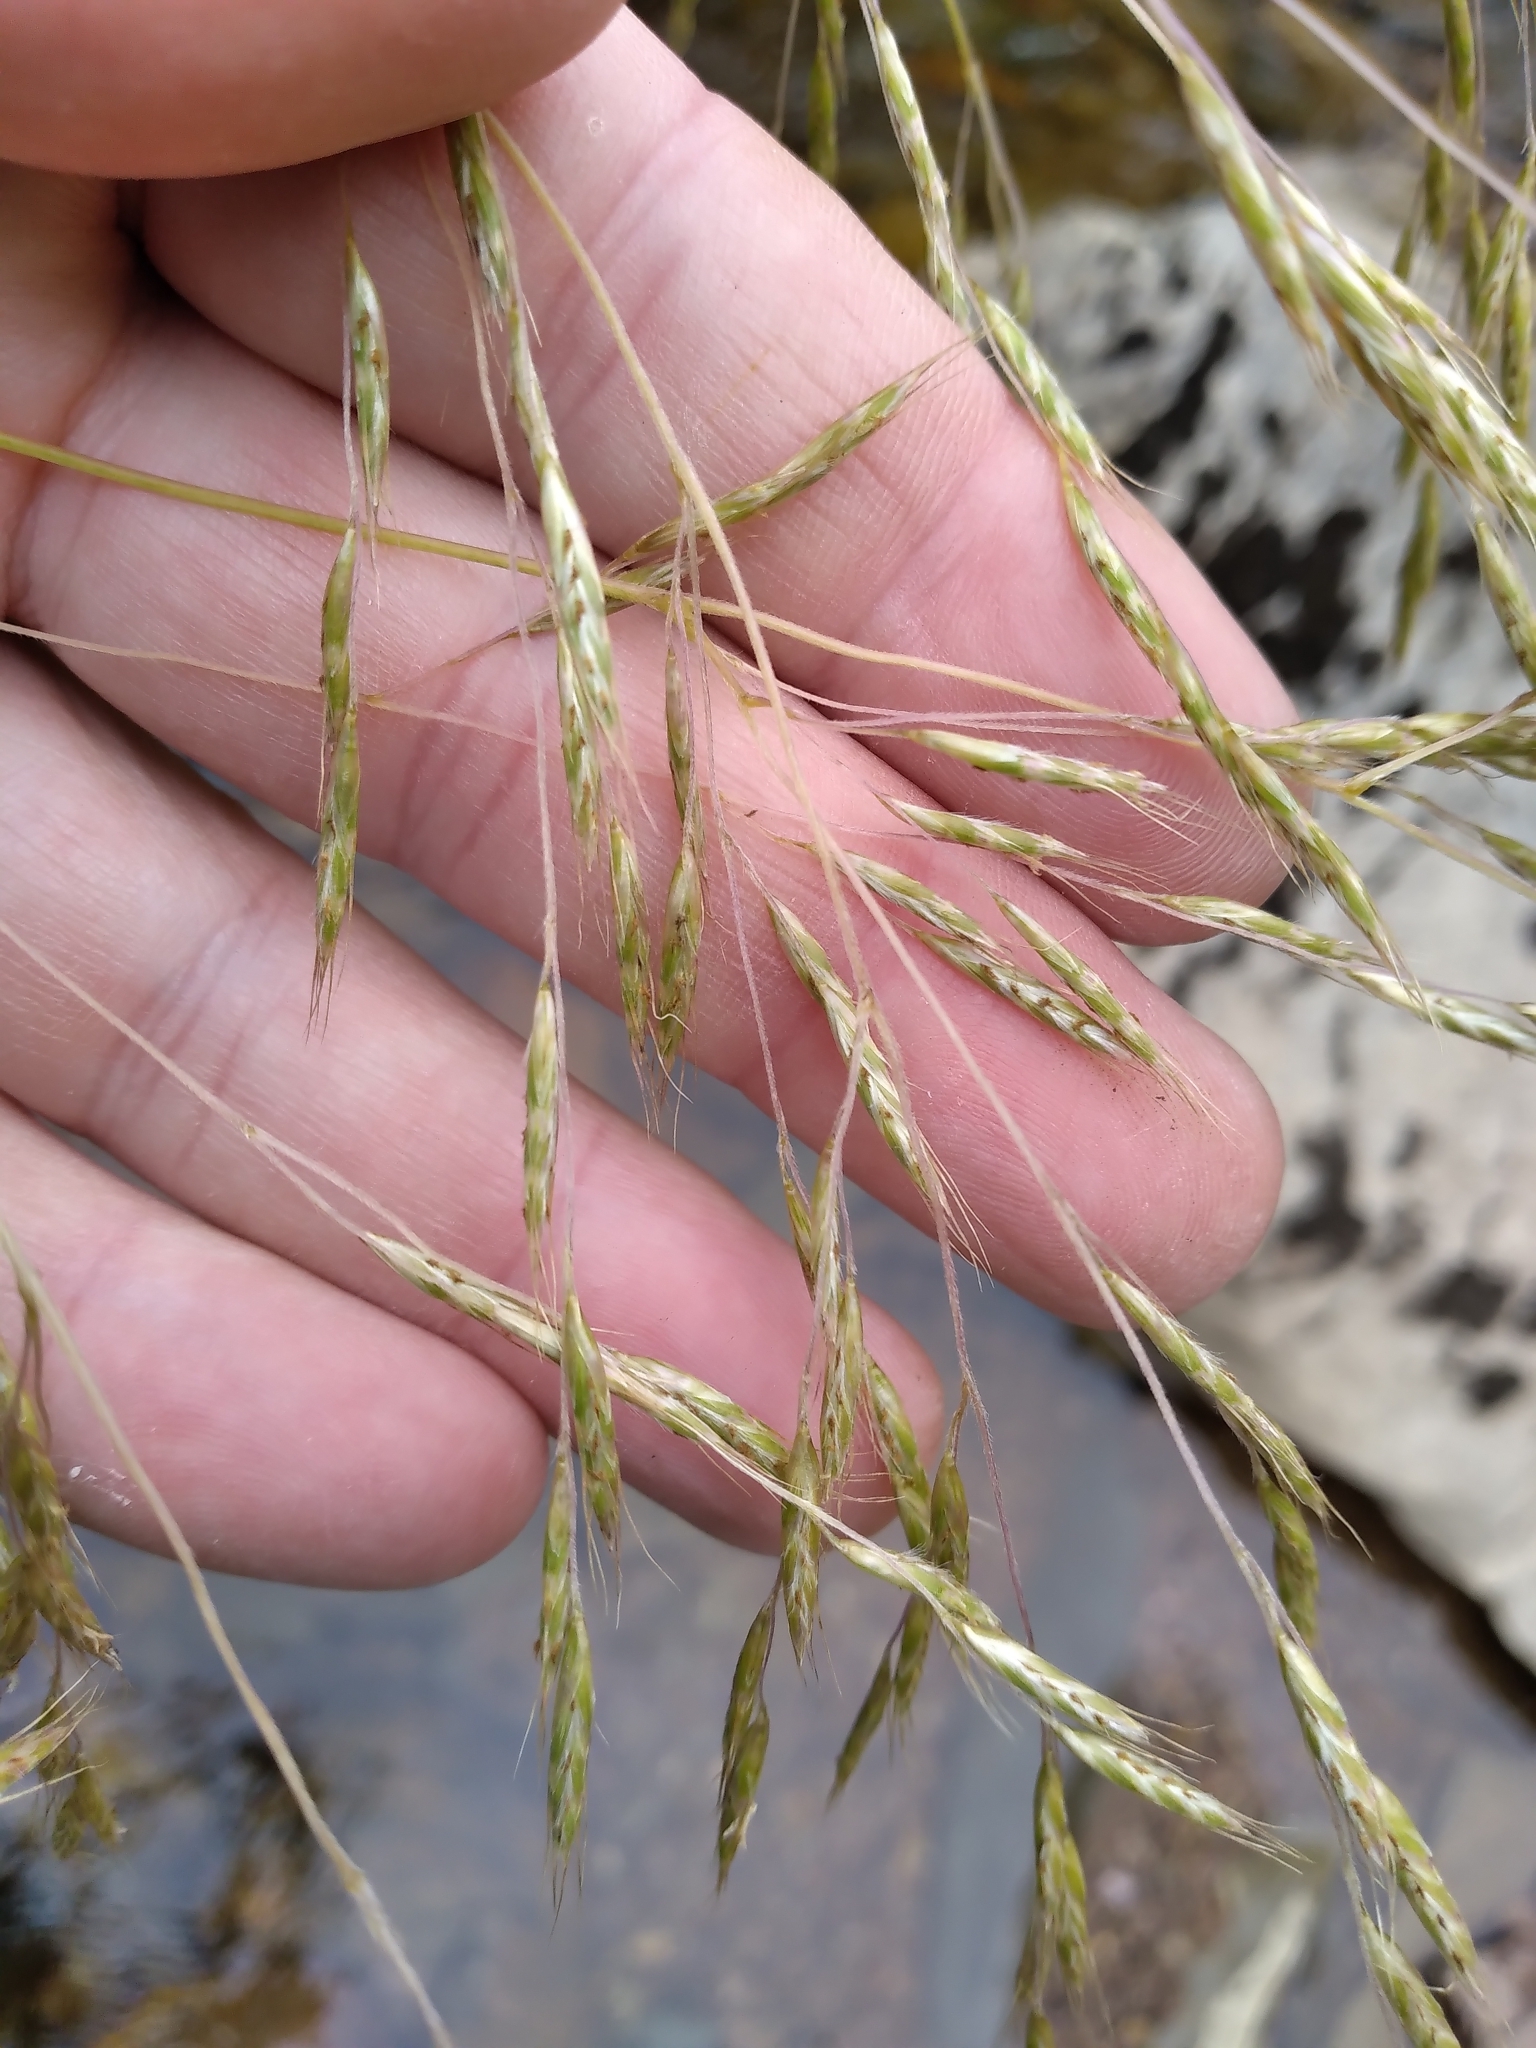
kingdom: Plantae
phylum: Tracheophyta
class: Liliopsida
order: Poales
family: Poaceae
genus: Chionochloa
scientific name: Chionochloa conspicua
